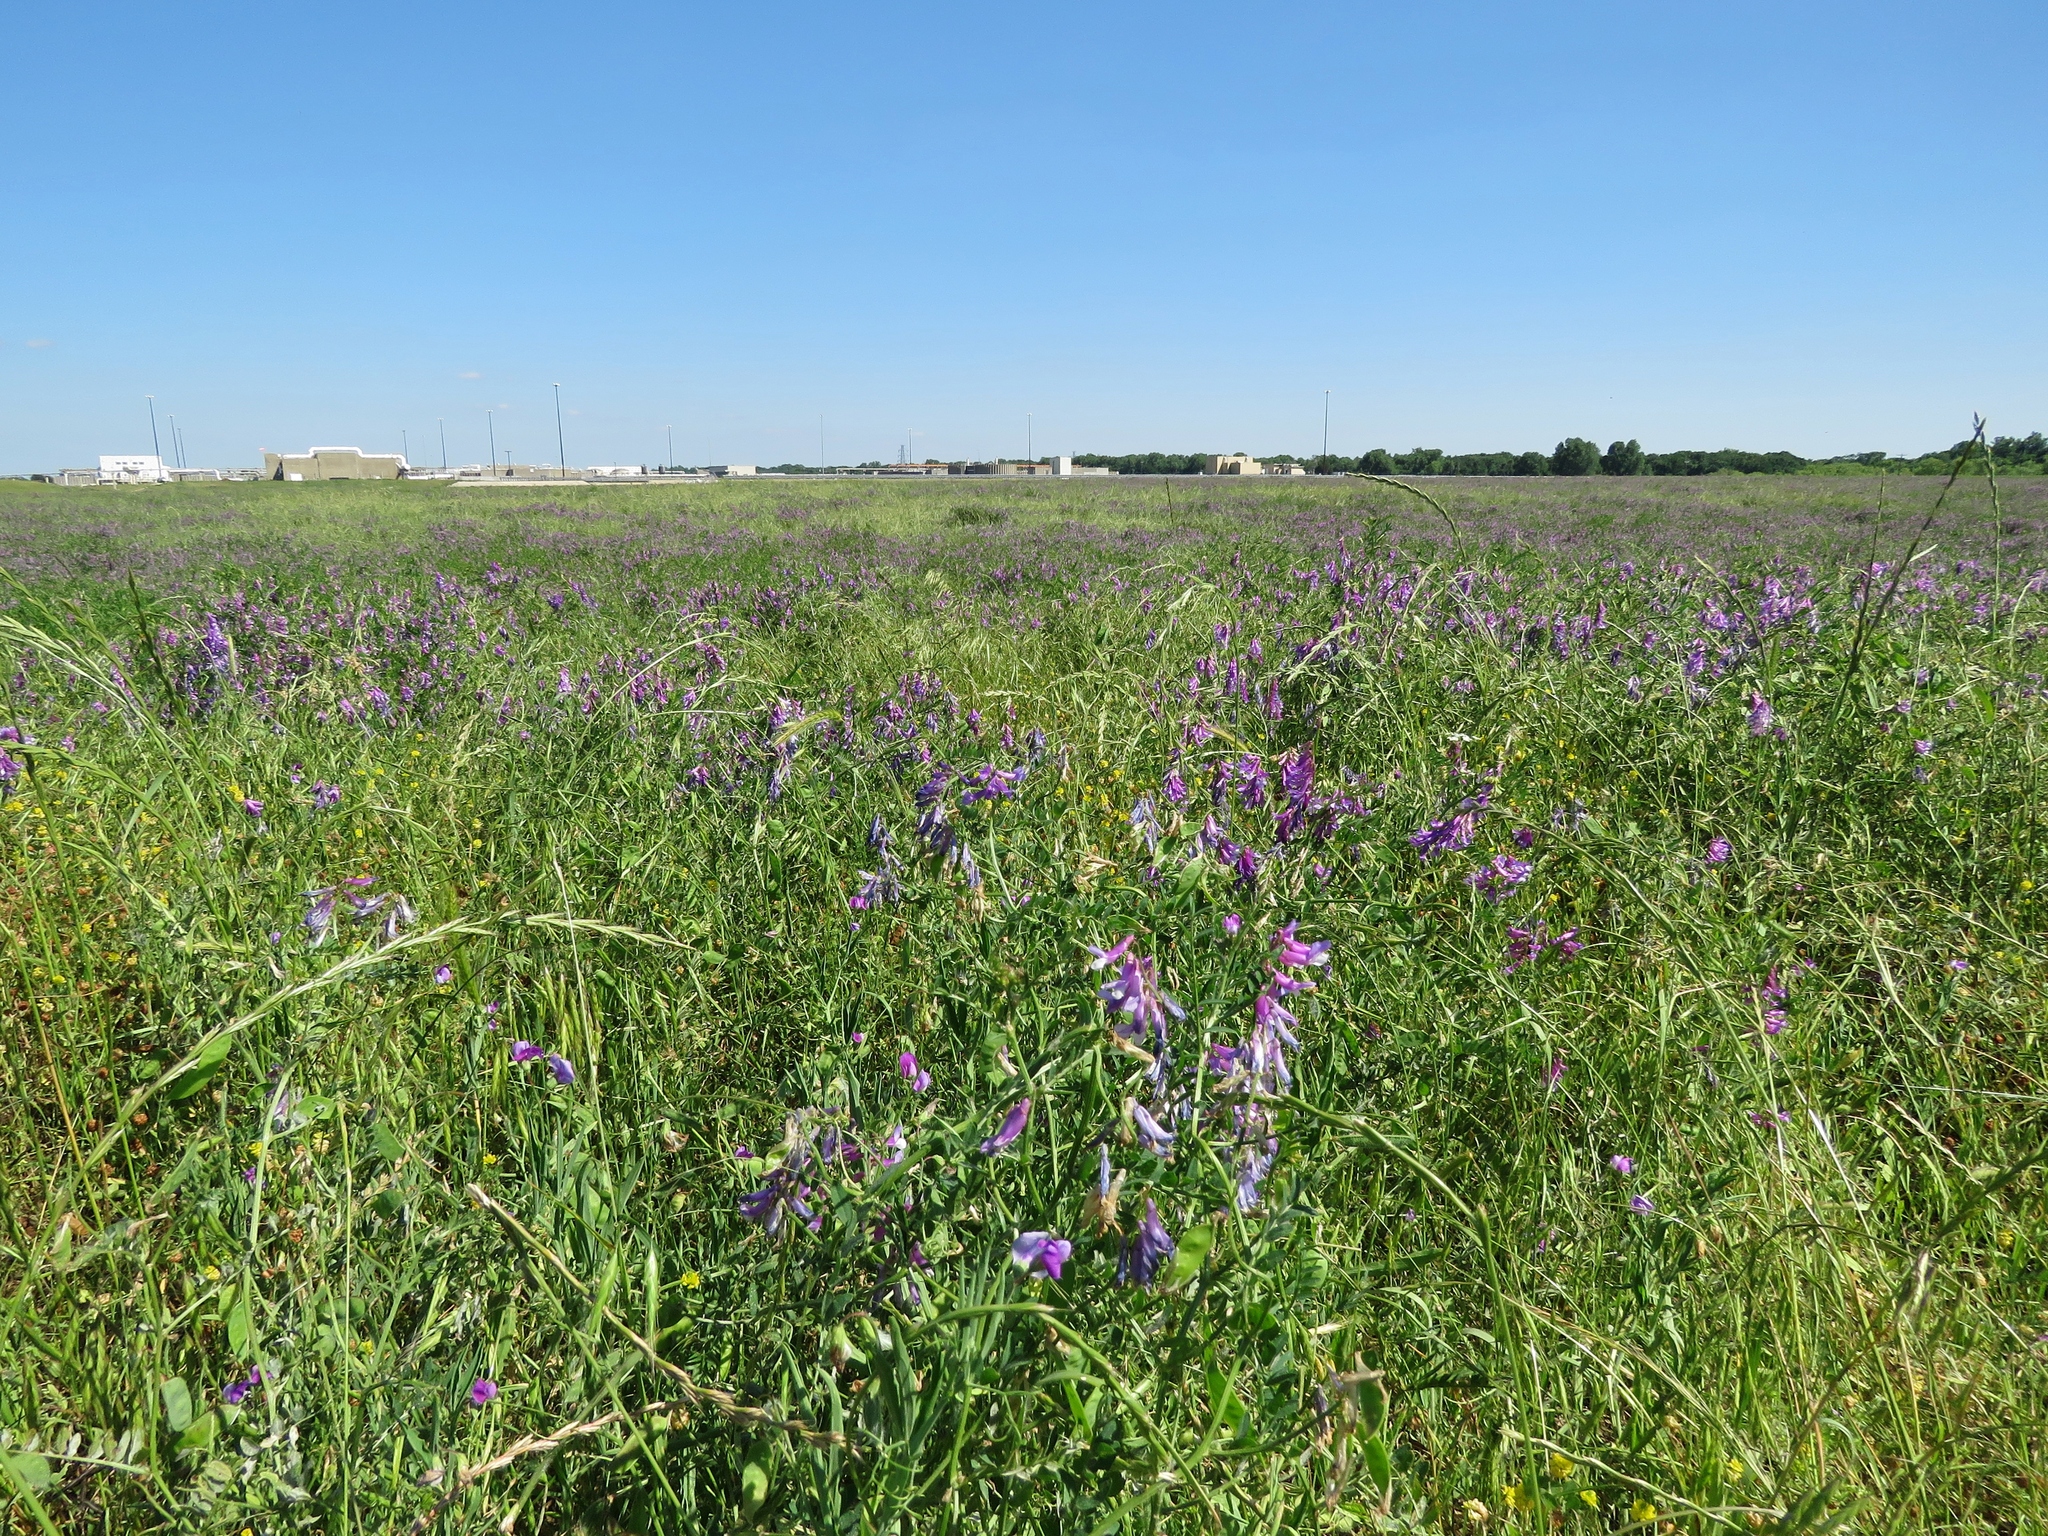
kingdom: Plantae
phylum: Tracheophyta
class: Magnoliopsida
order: Fabales
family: Fabaceae
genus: Vicia
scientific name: Vicia villosa
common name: Fodder vetch
